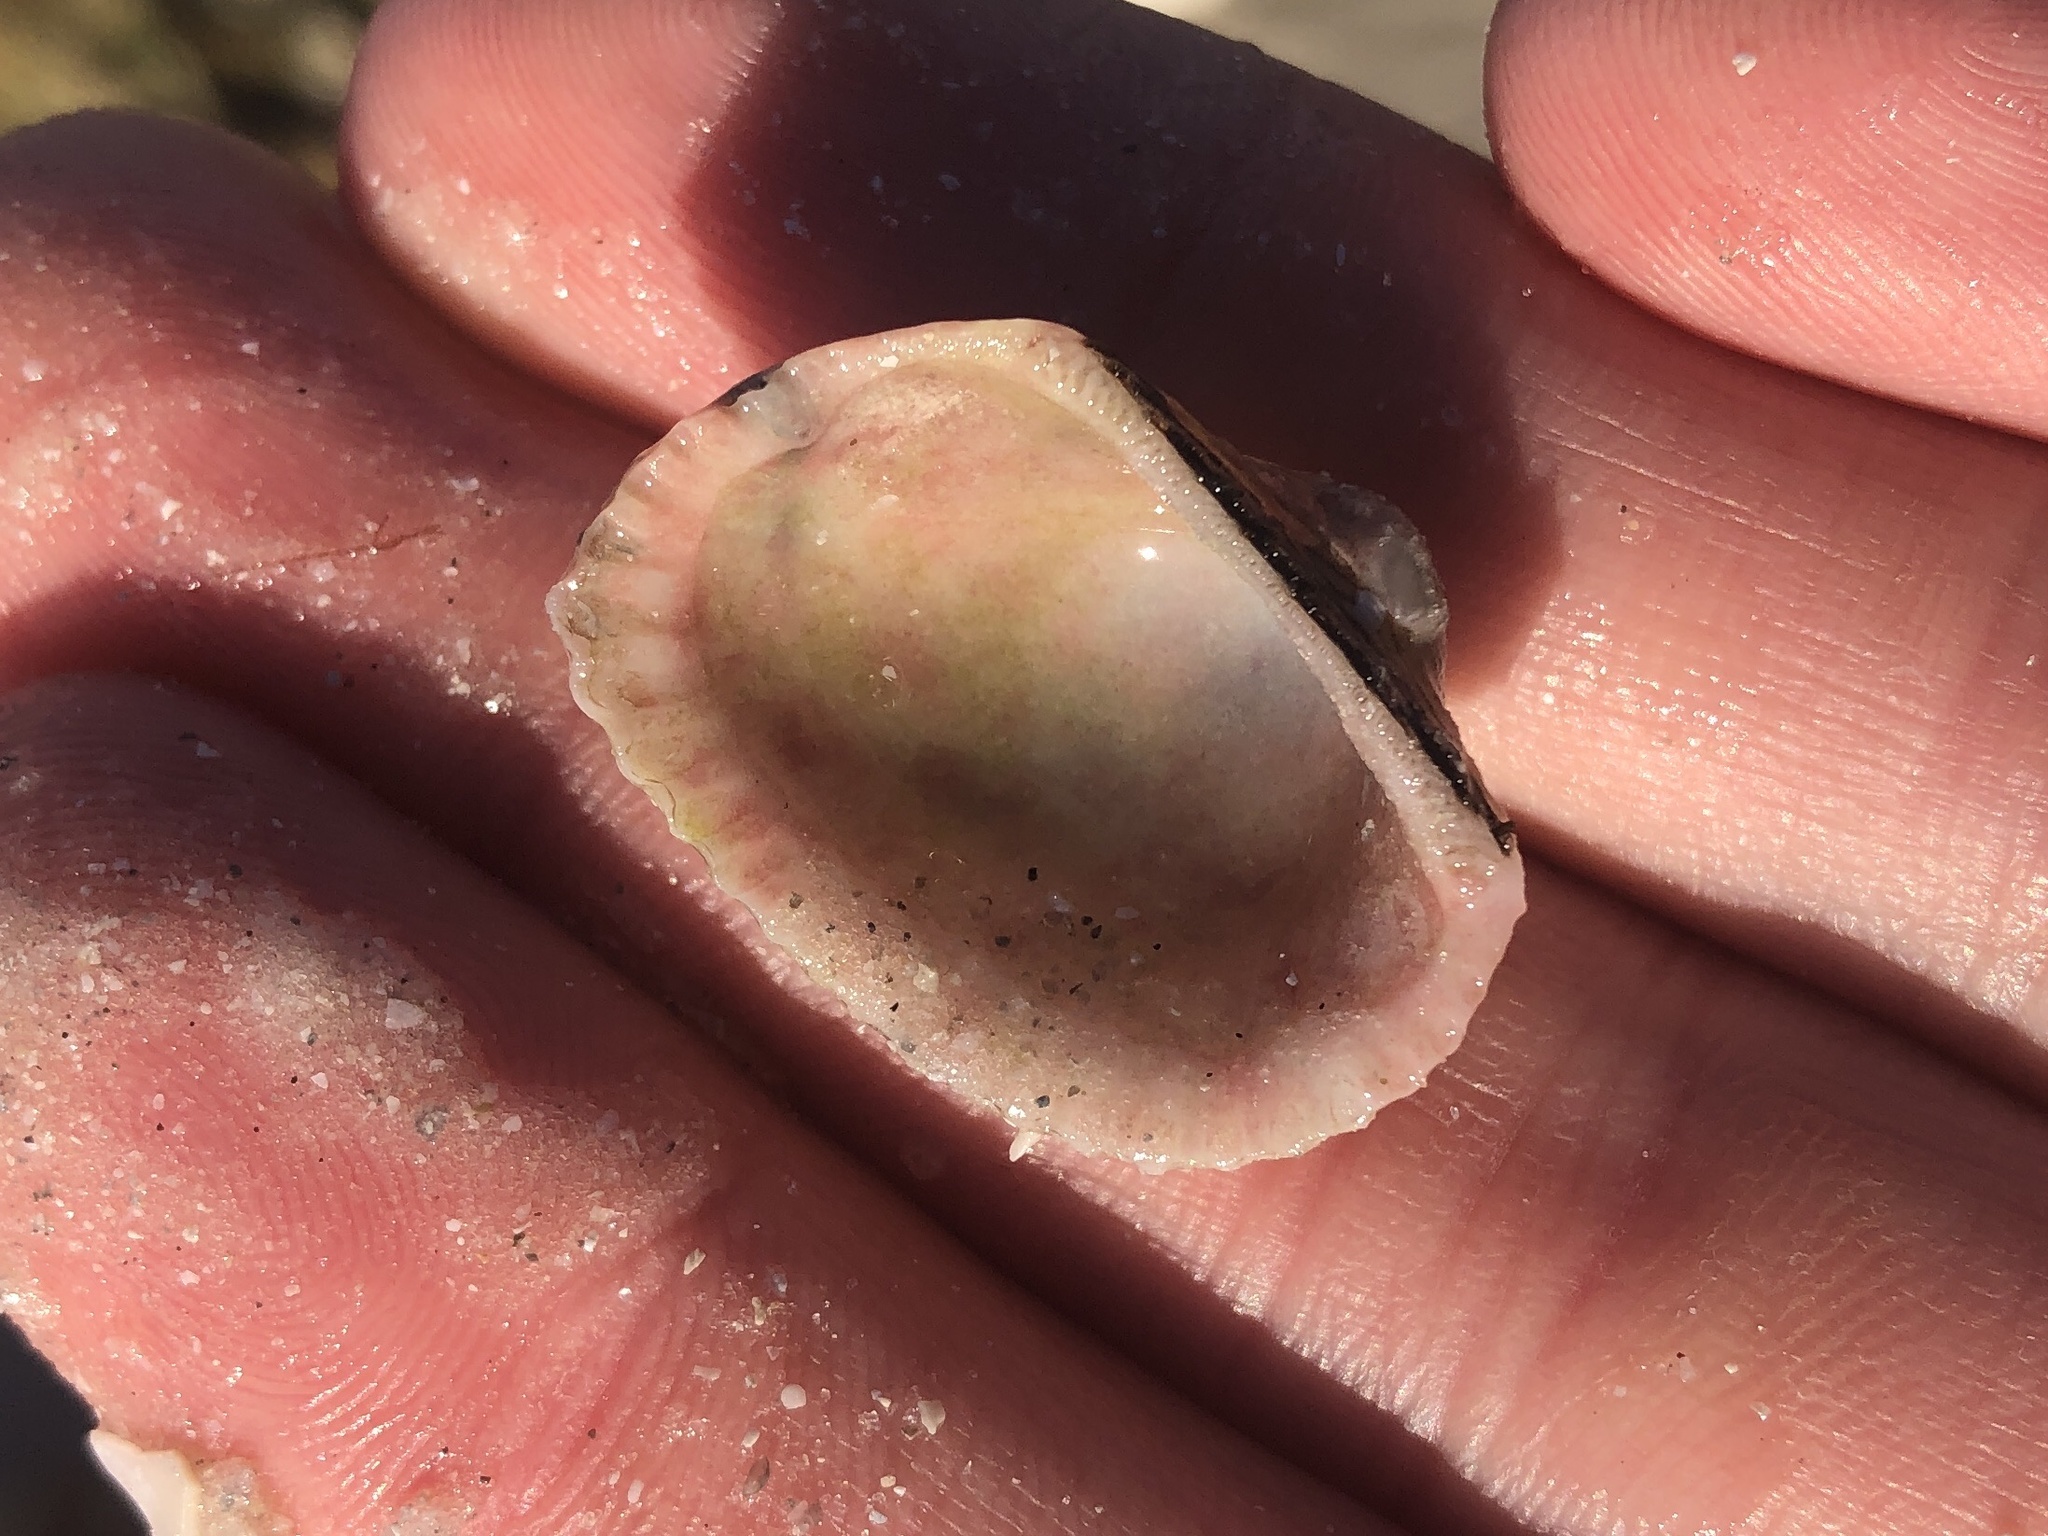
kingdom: Animalia
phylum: Mollusca
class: Bivalvia
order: Arcida
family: Arcidae
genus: Anadara
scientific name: Anadara transversa
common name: Transverse ark
